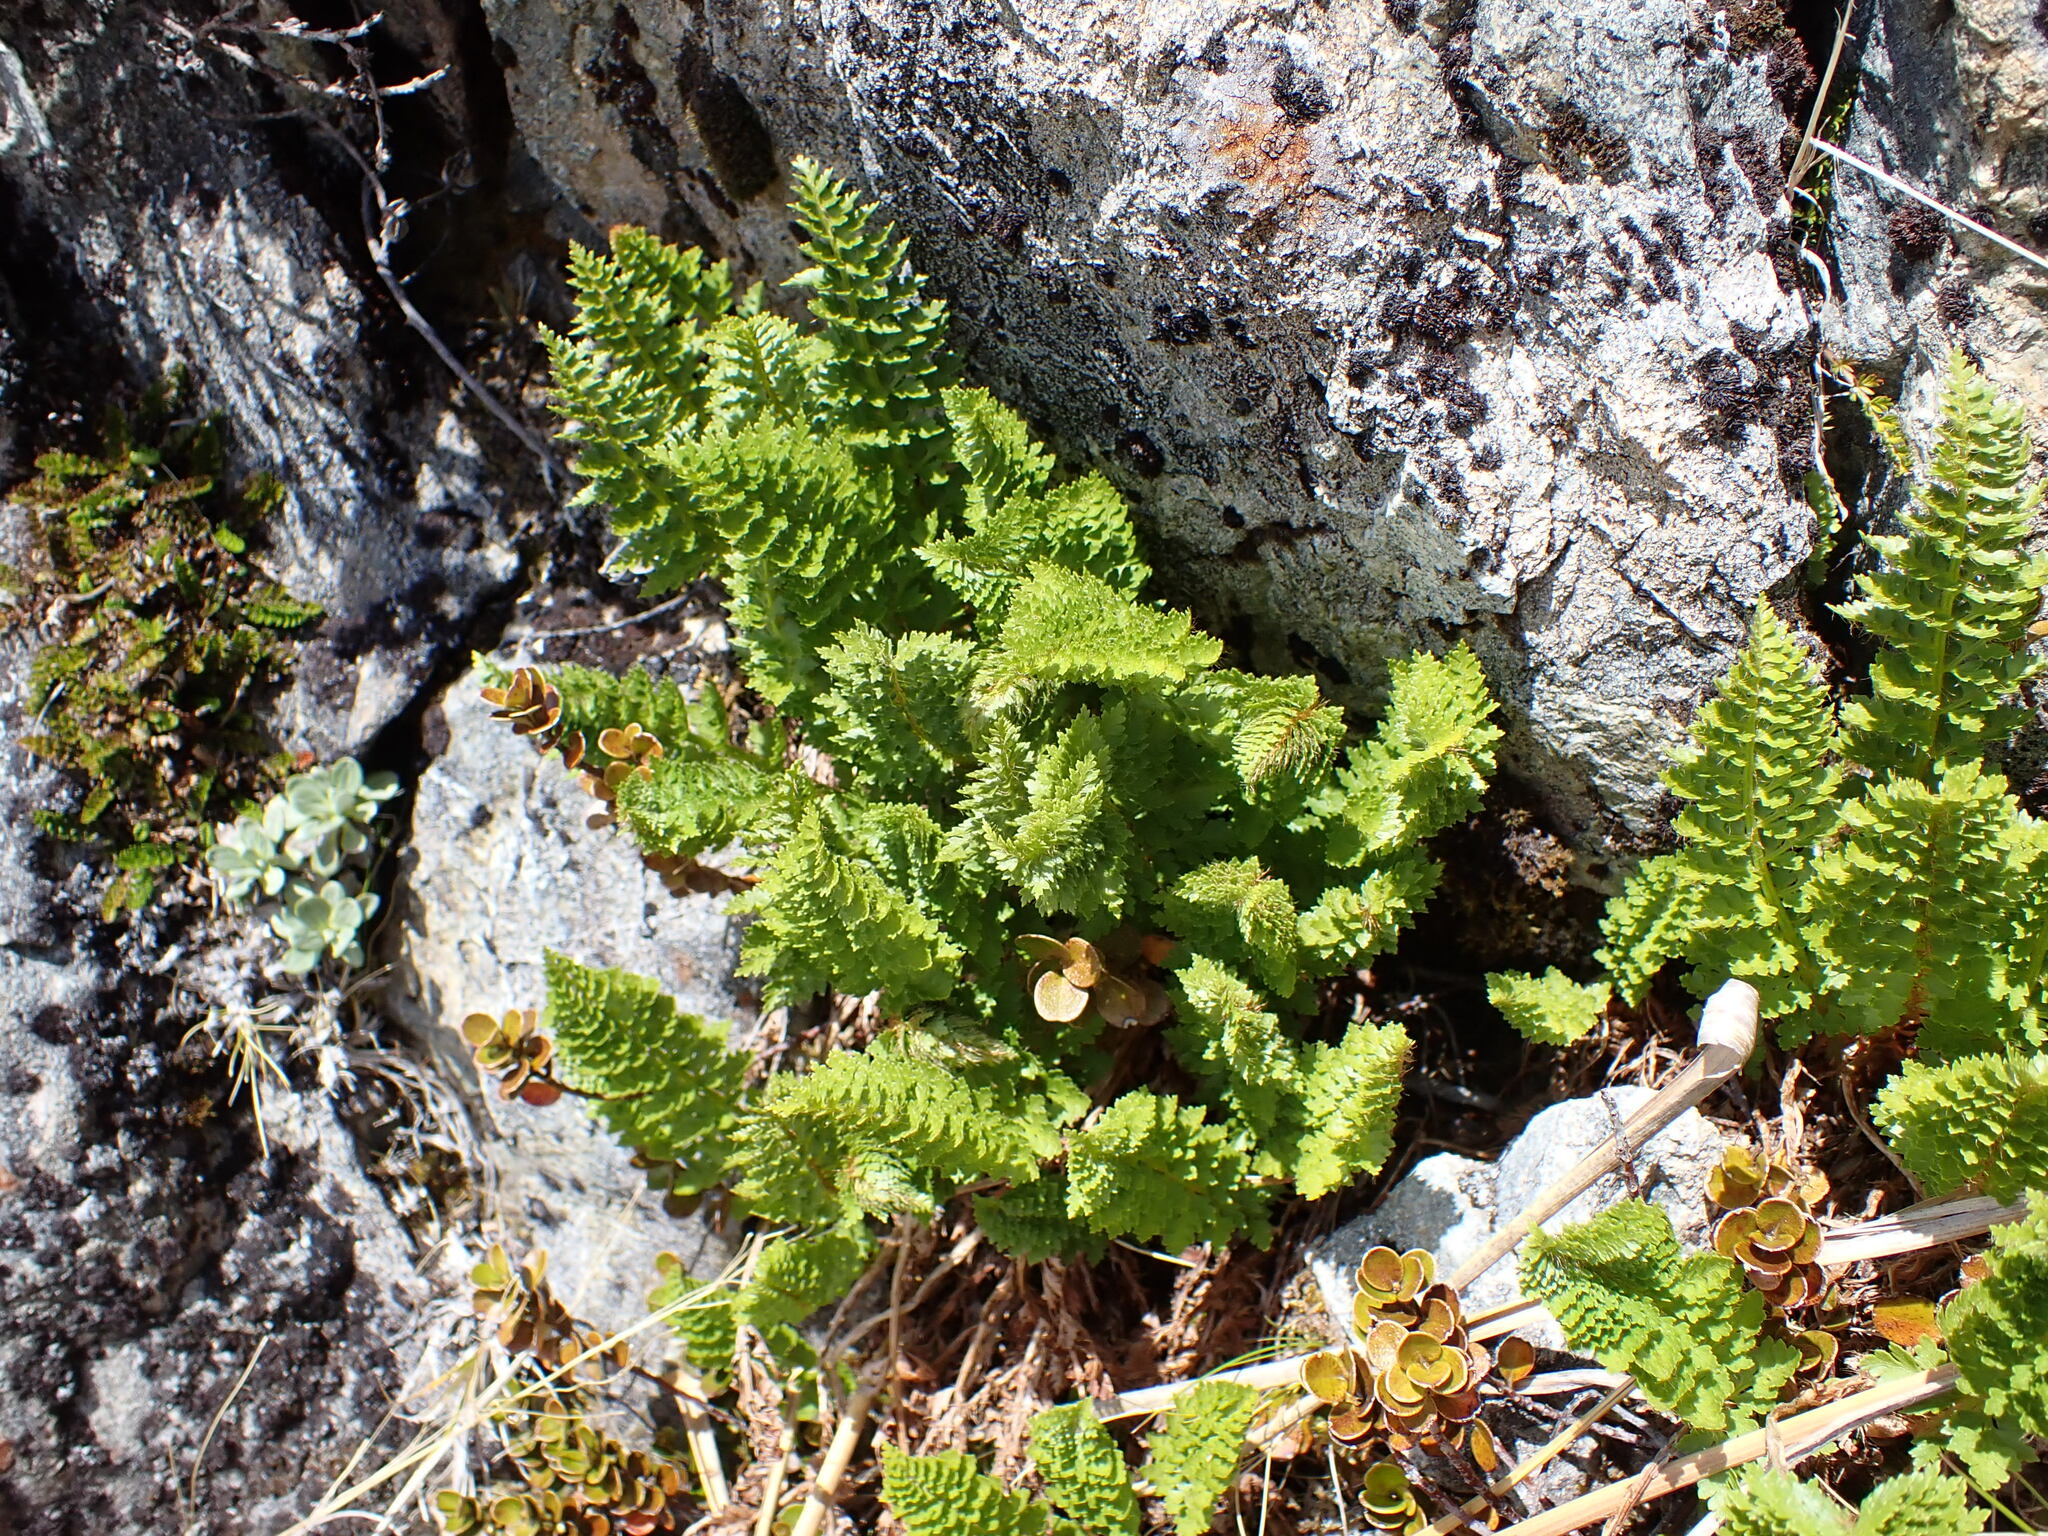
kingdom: Plantae
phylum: Tracheophyta
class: Polypodiopsida
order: Polypodiales
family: Dryopteridaceae
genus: Polystichum
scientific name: Polystichum cystostegia
